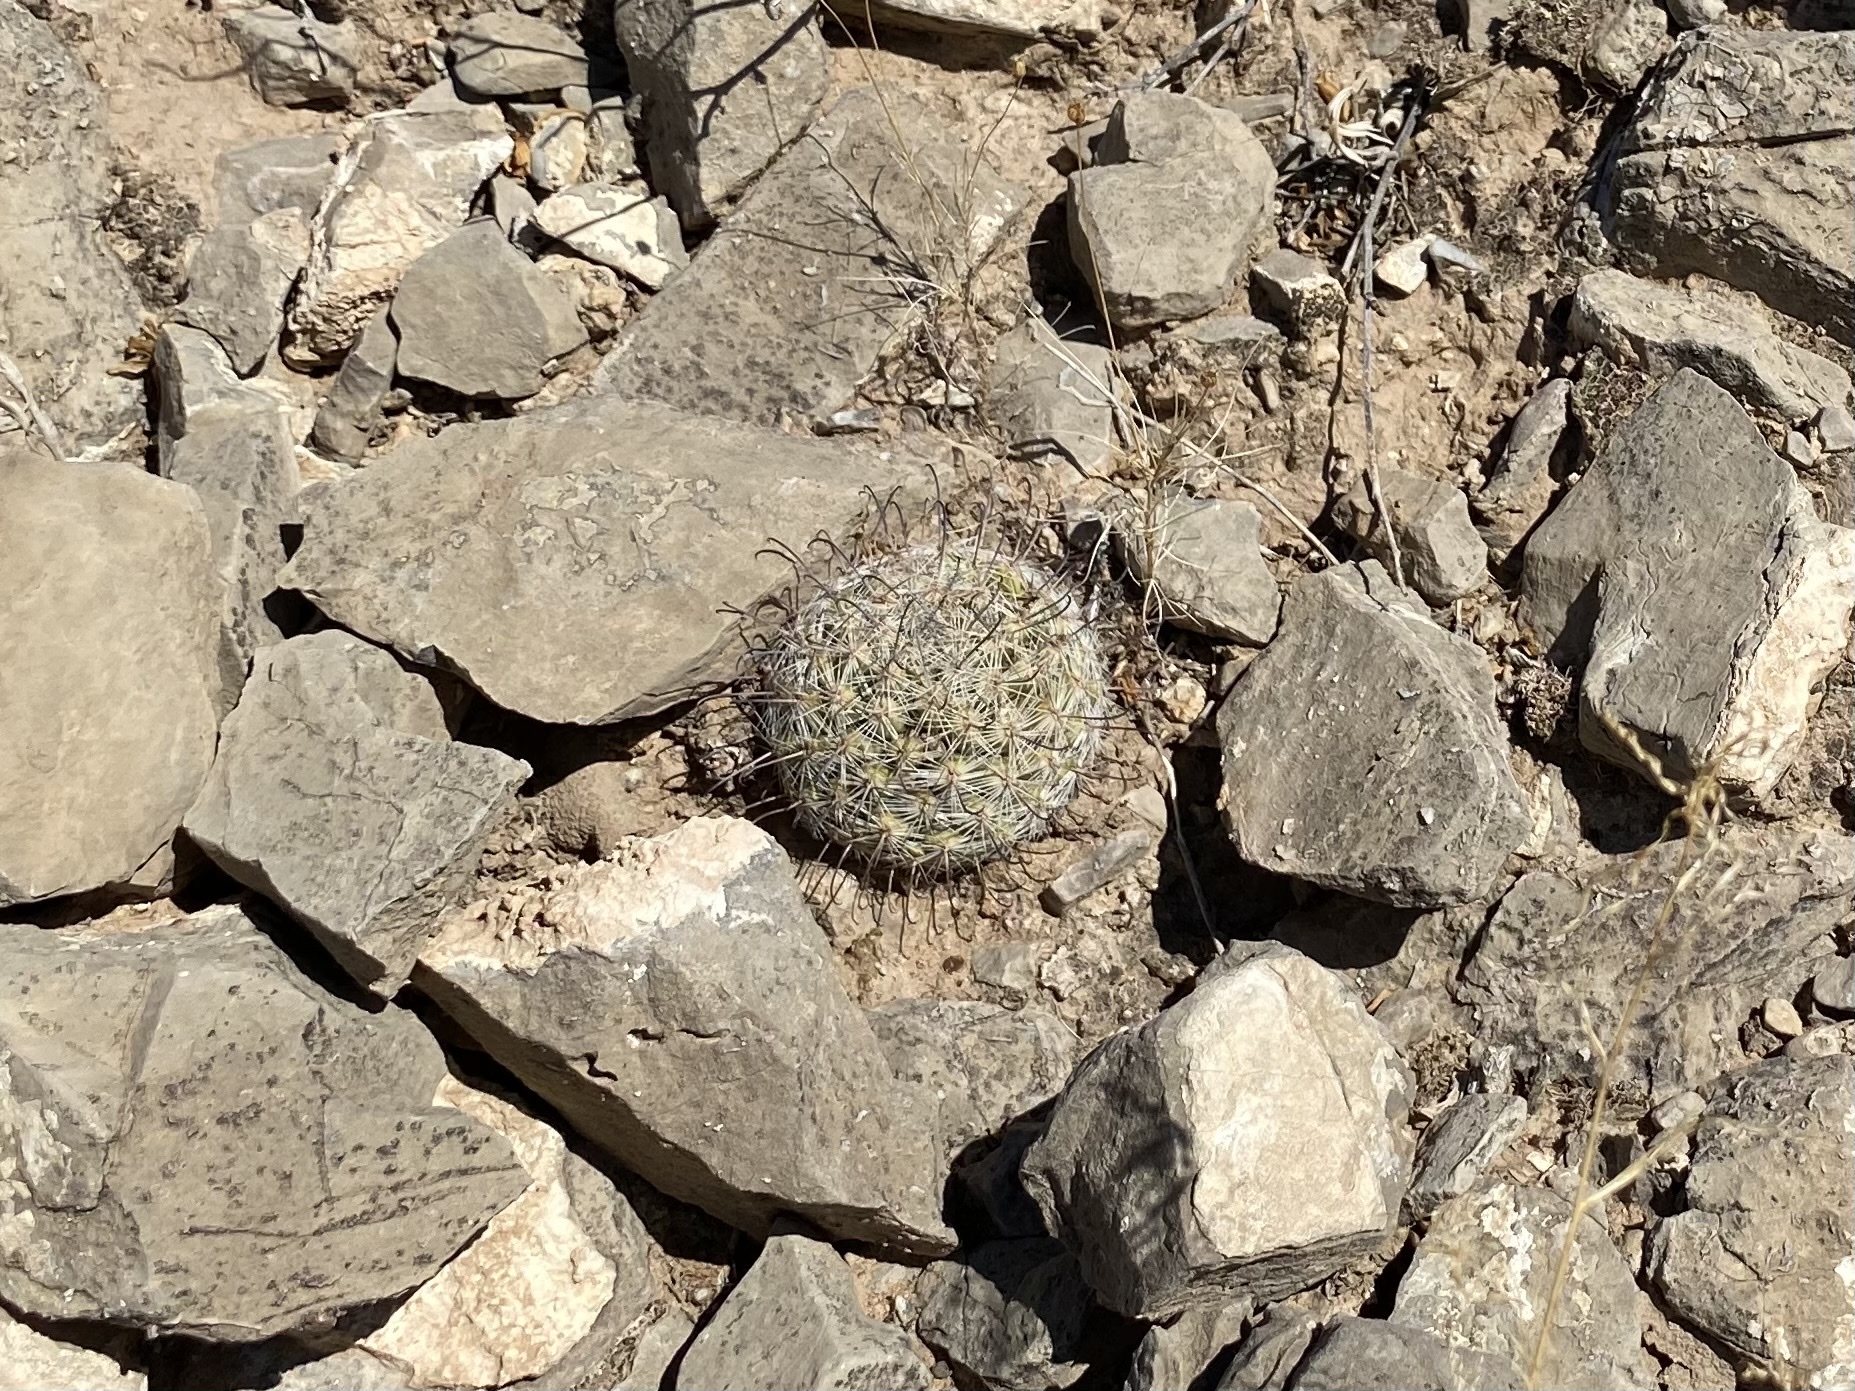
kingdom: Plantae
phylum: Tracheophyta
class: Magnoliopsida
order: Caryophyllales
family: Cactaceae
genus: Cochemiea
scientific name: Cochemiea grahamii
